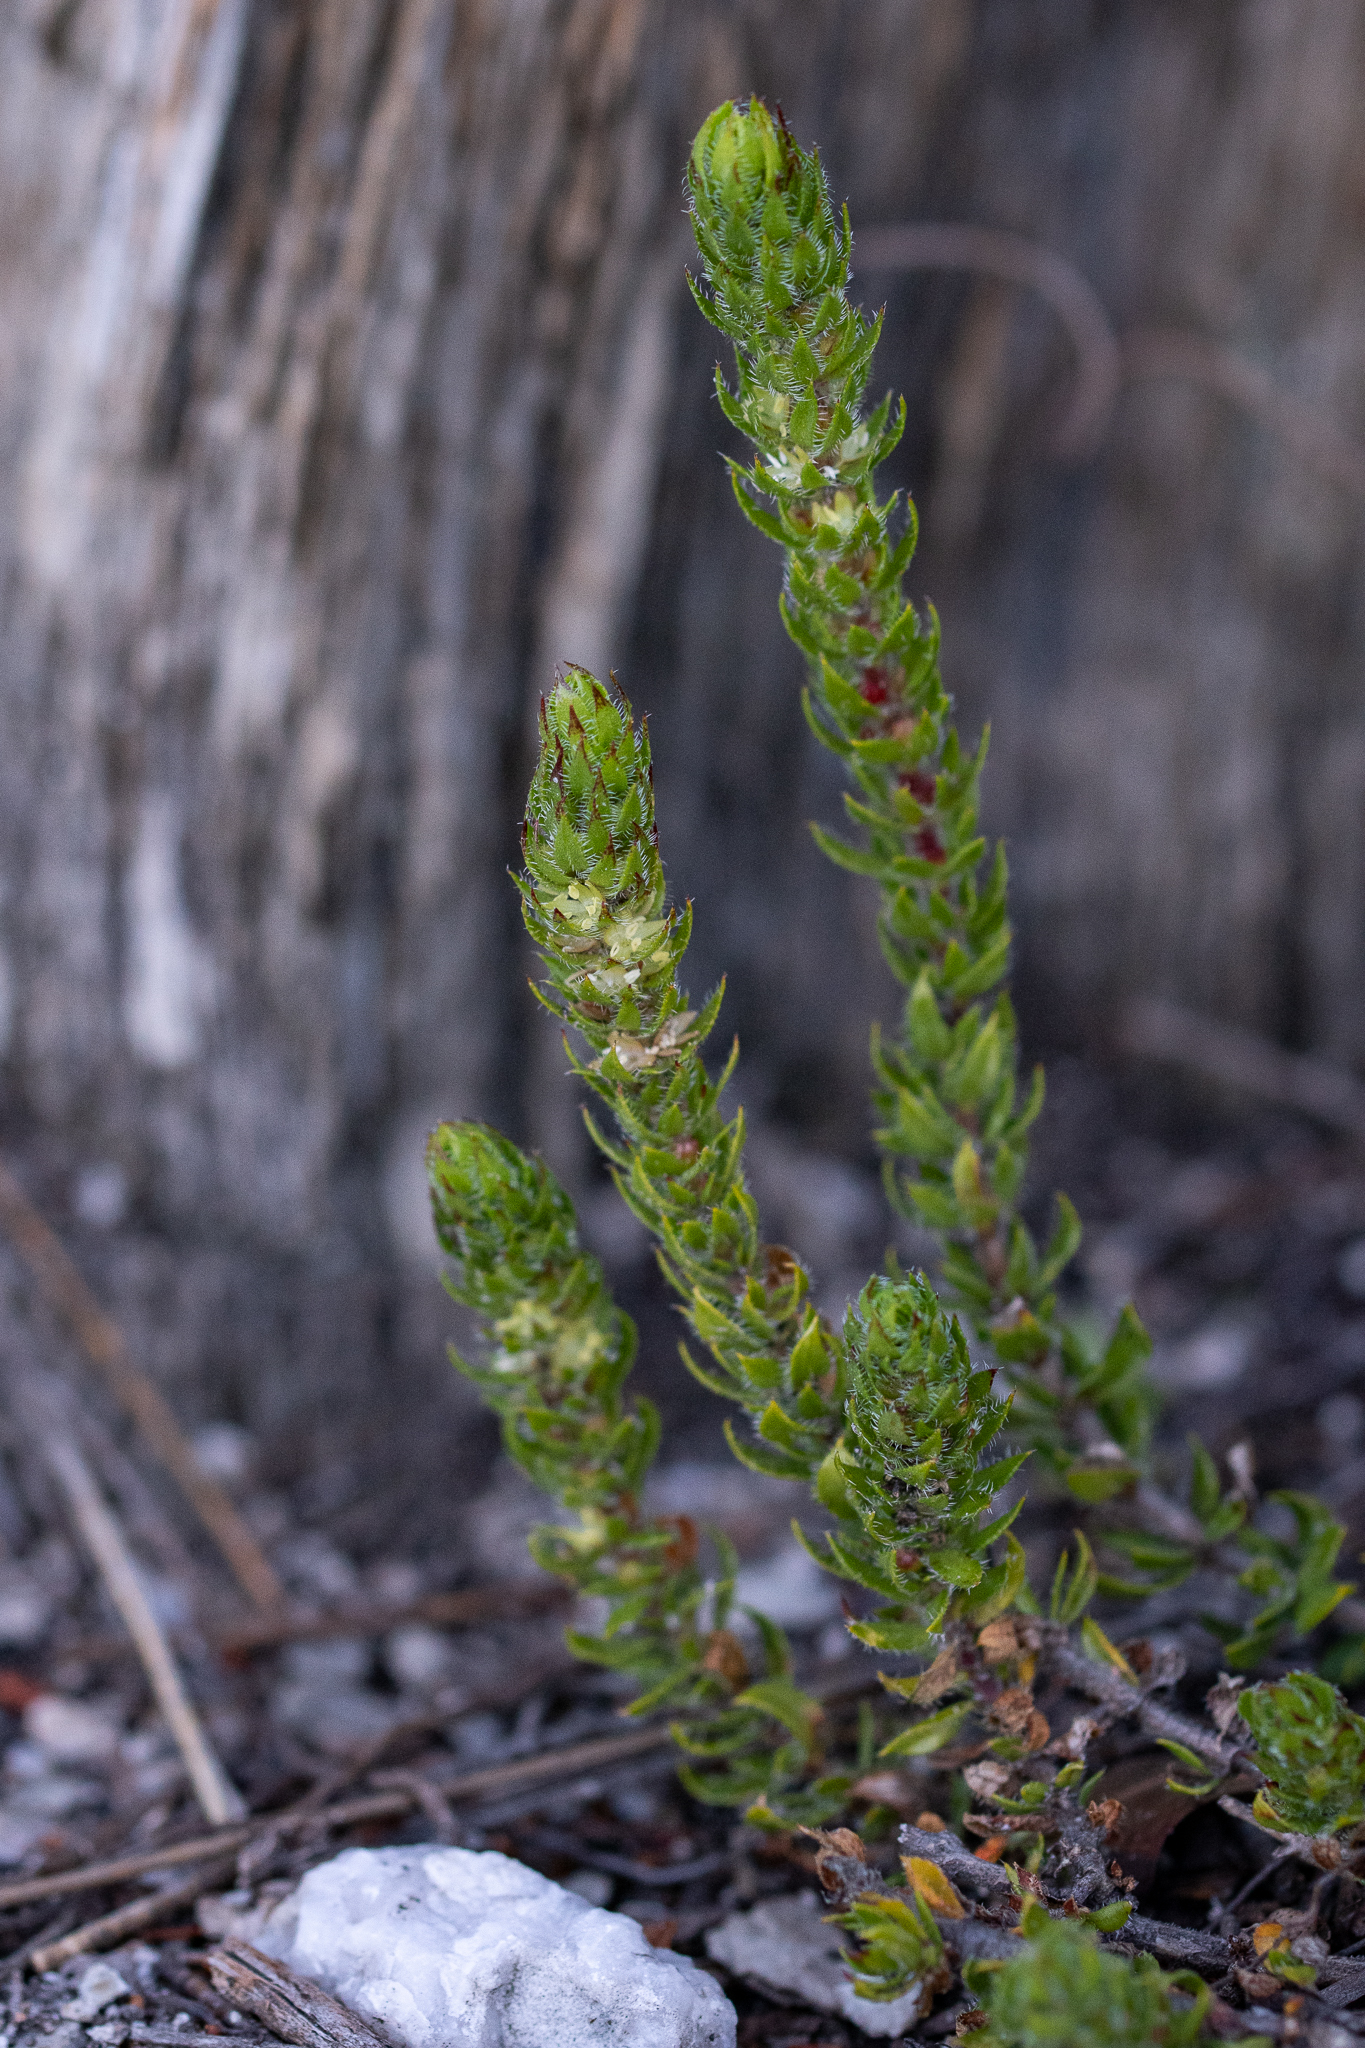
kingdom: Plantae
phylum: Tracheophyta
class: Magnoliopsida
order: Gentianales
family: Rubiaceae
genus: Anthospermum
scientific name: Anthospermum bergianum
